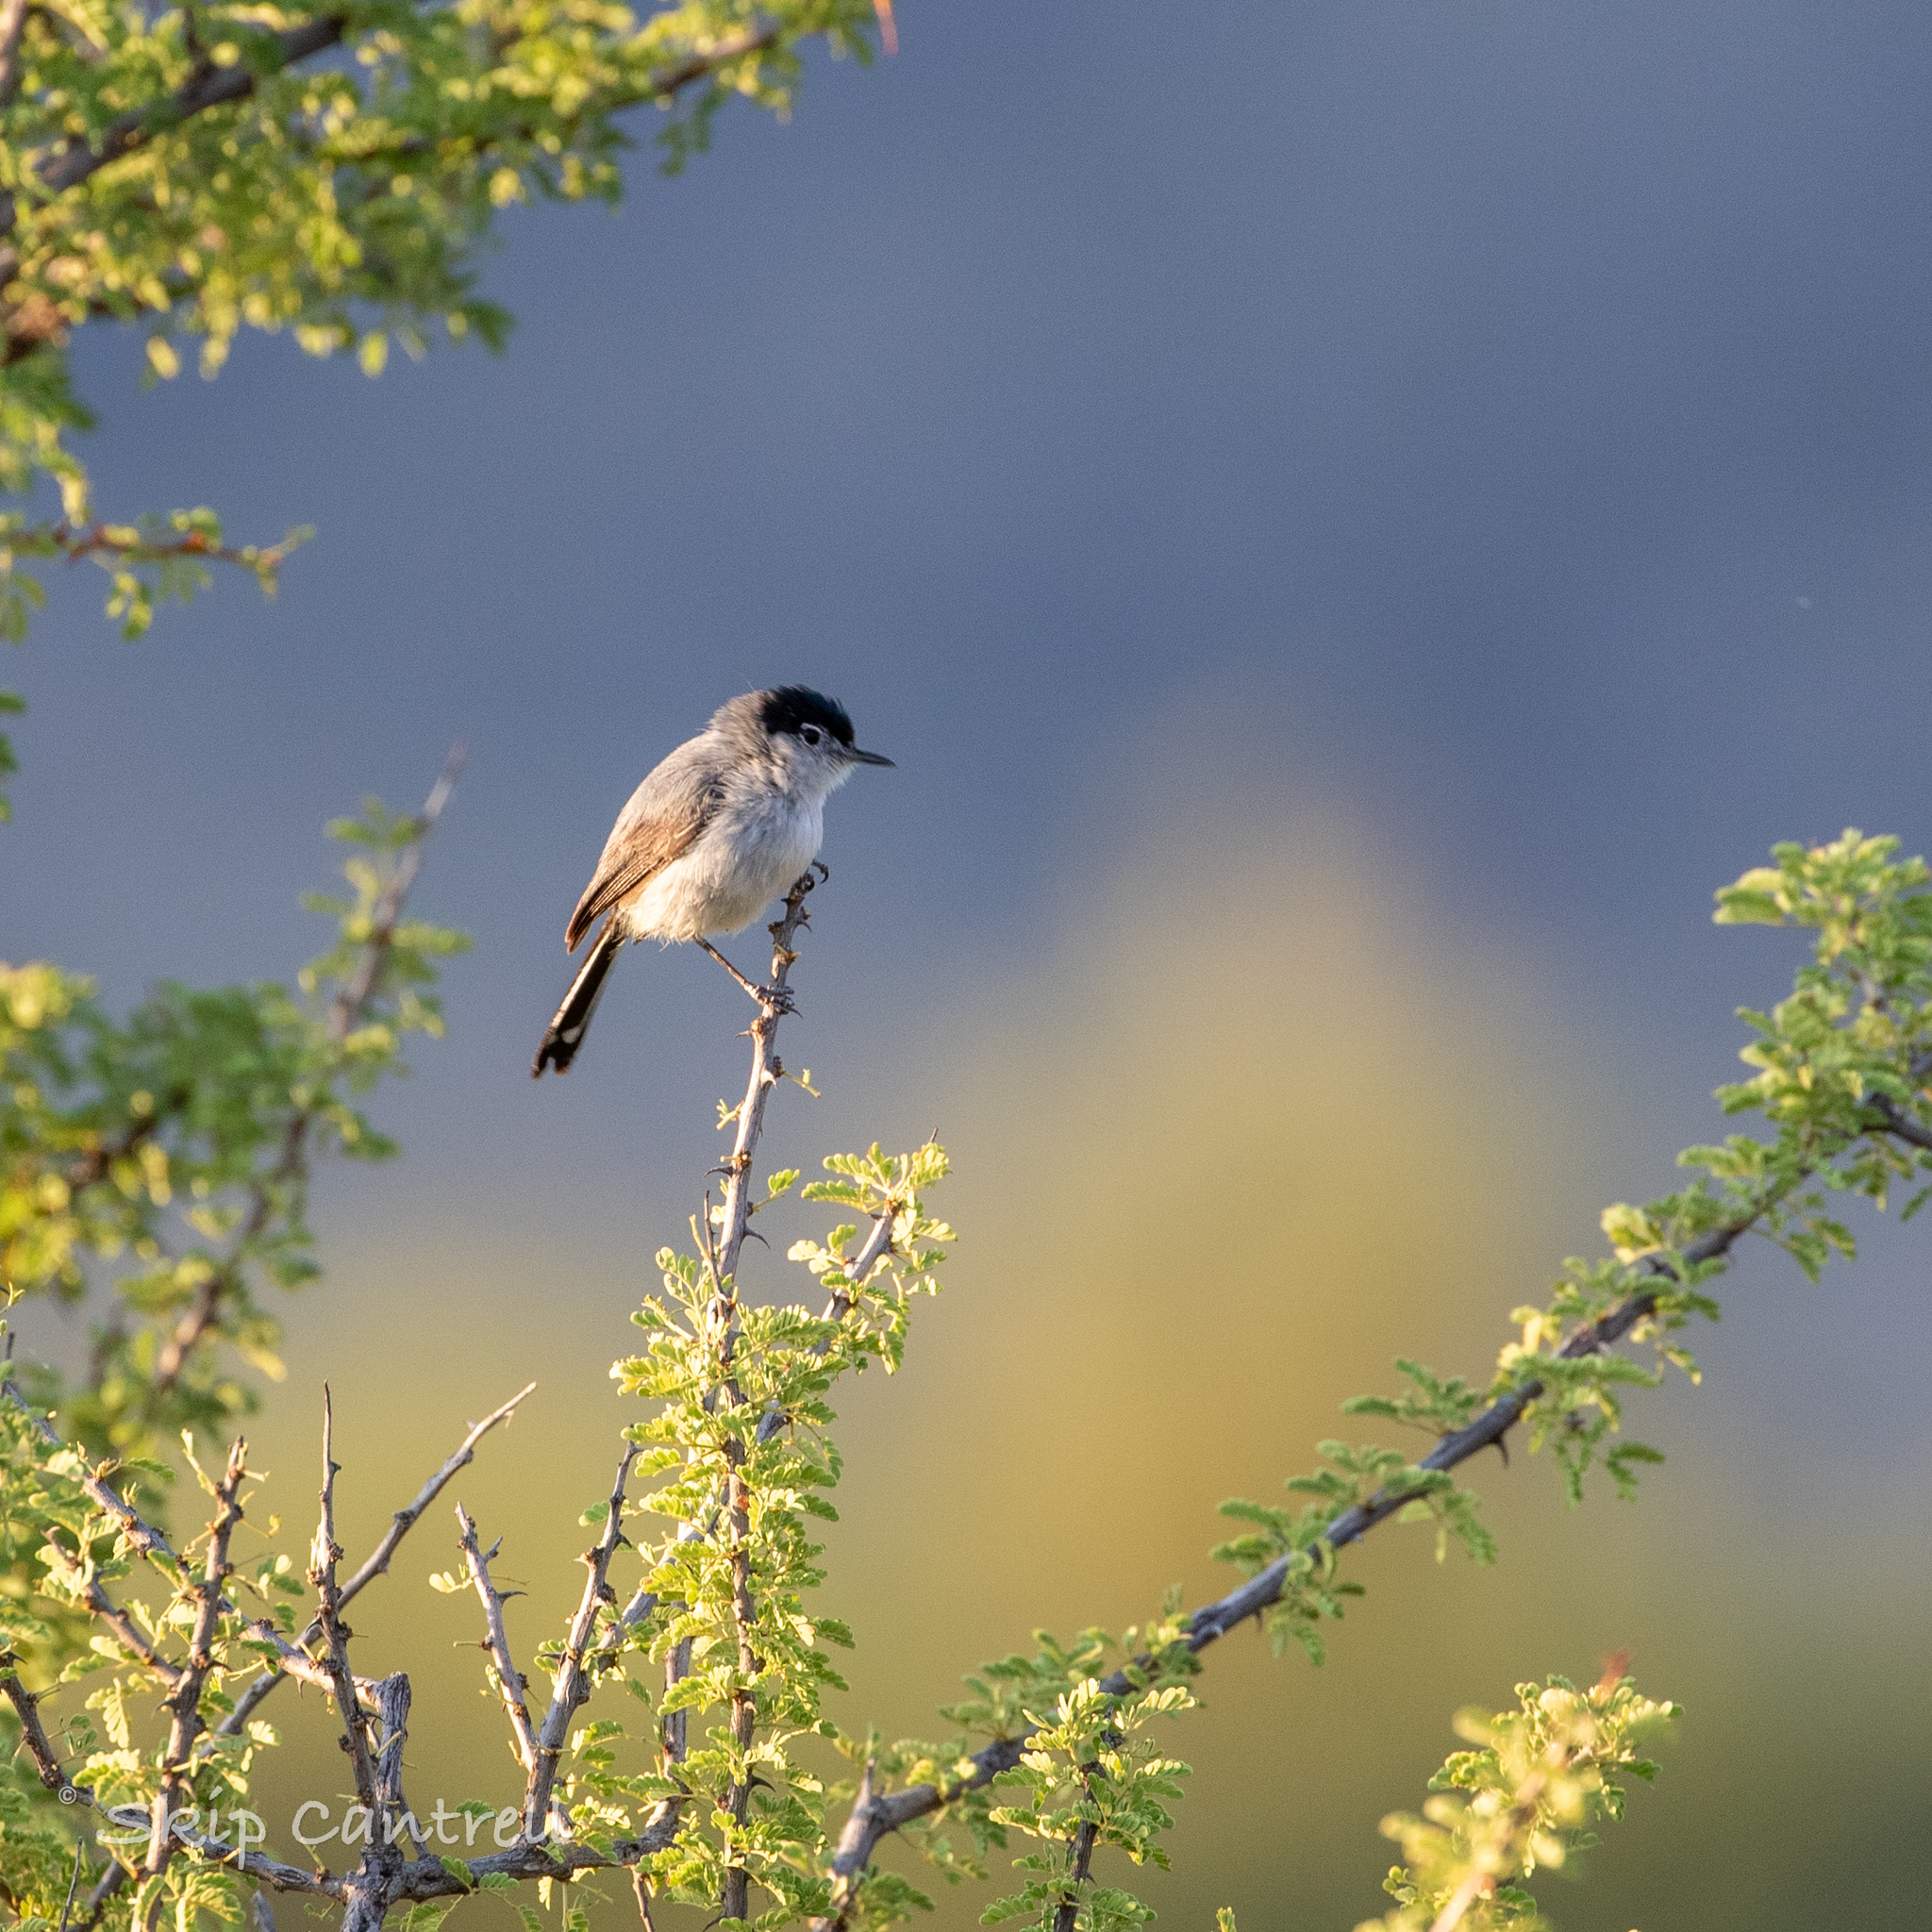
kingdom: Animalia
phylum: Chordata
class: Aves
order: Passeriformes
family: Polioptilidae
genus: Polioptila
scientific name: Polioptila melanura
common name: Black-tailed gnatcatcher
